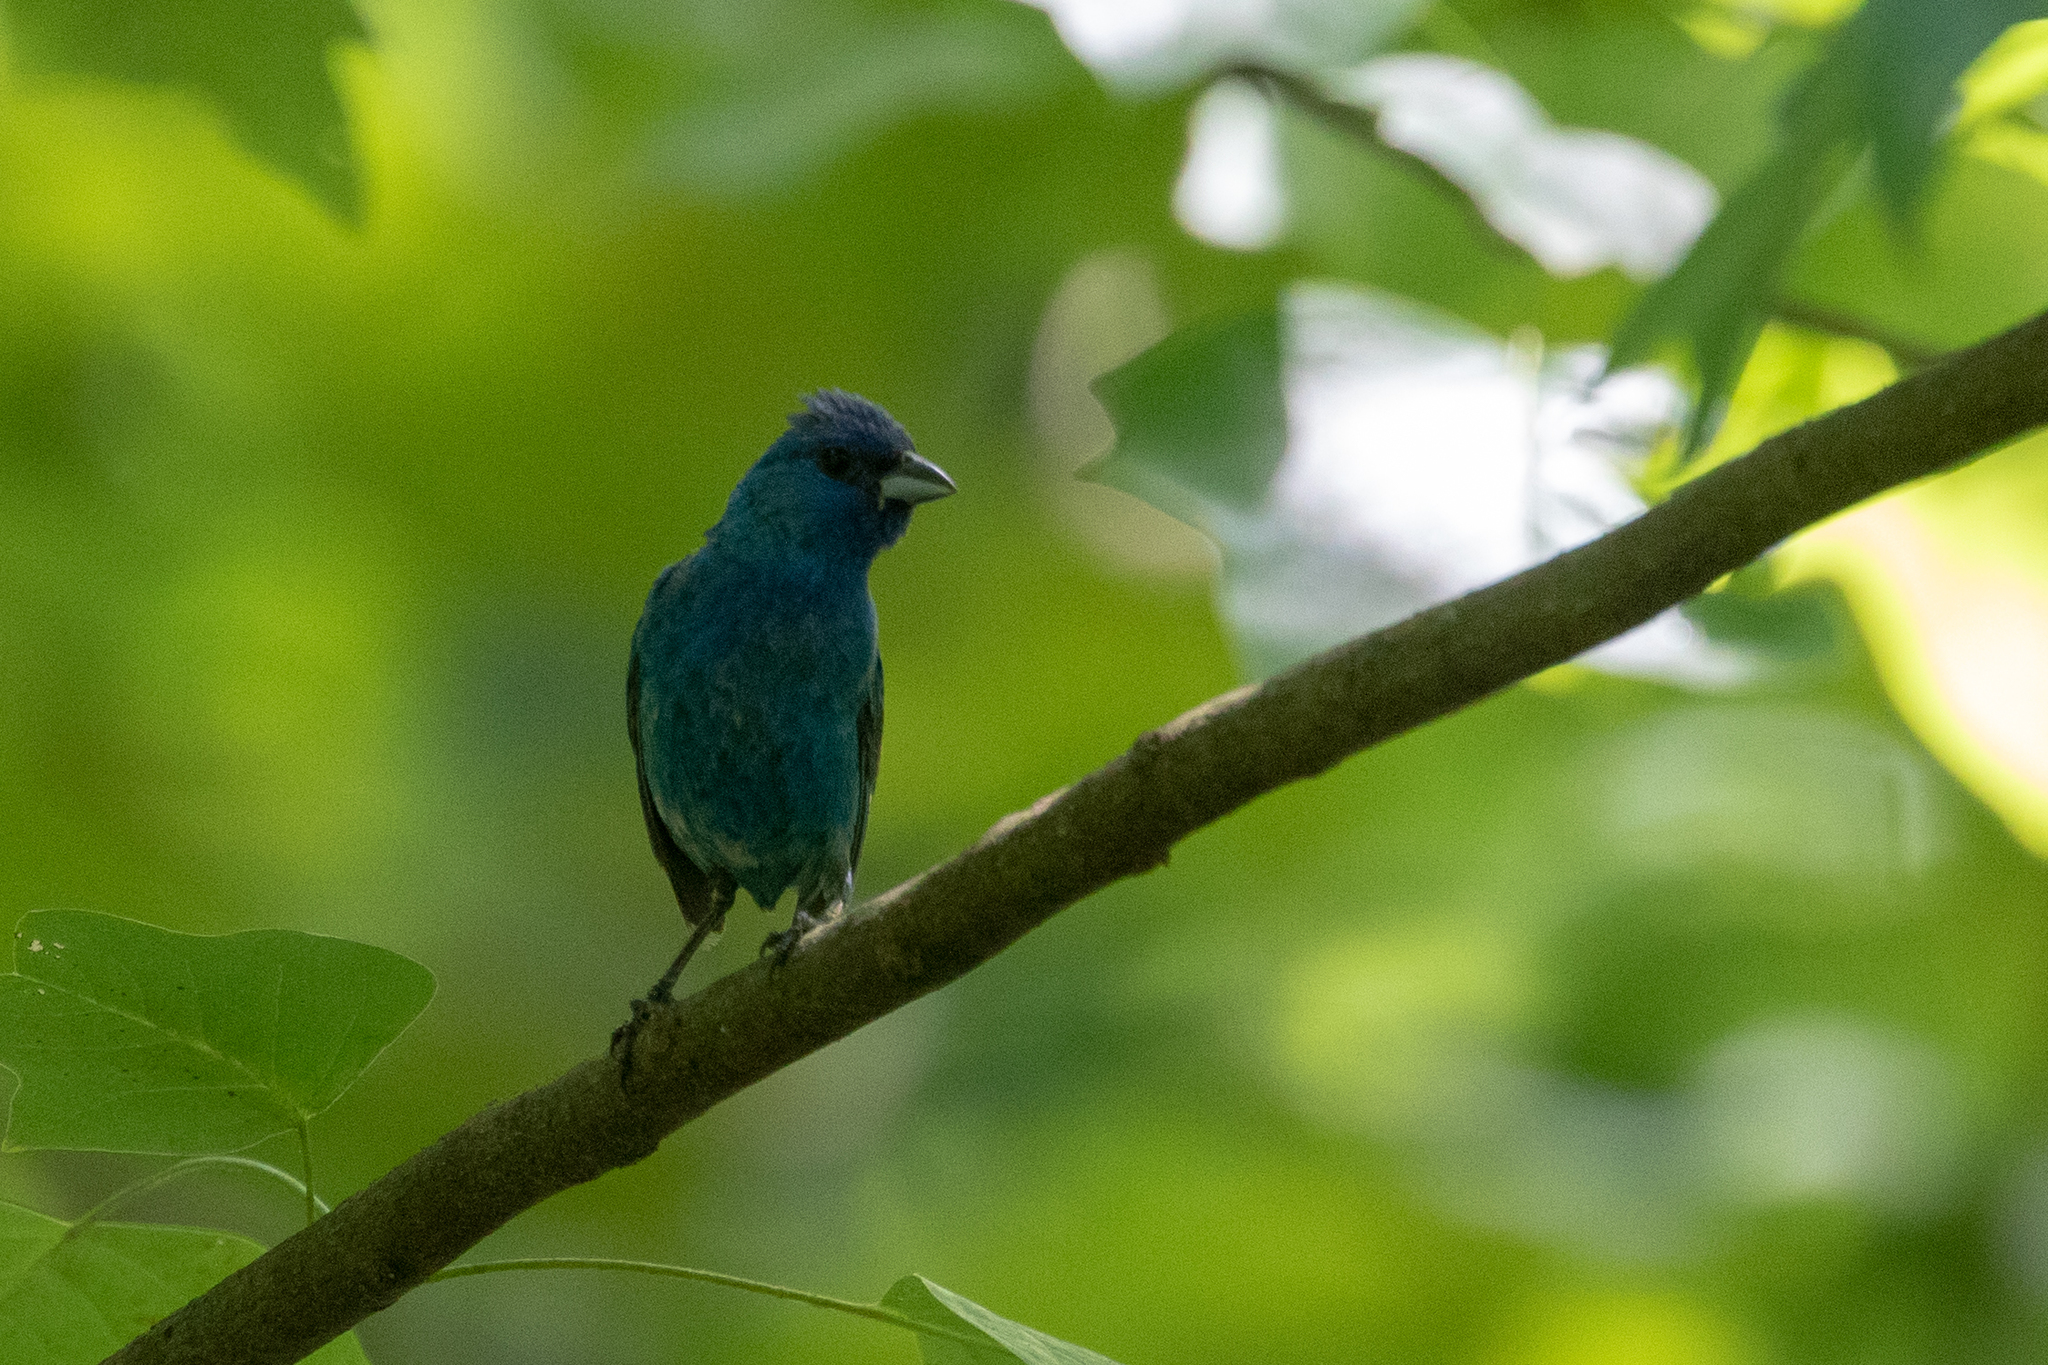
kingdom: Animalia
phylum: Chordata
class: Aves
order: Passeriformes
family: Cardinalidae
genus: Passerina
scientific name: Passerina cyanea
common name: Indigo bunting
